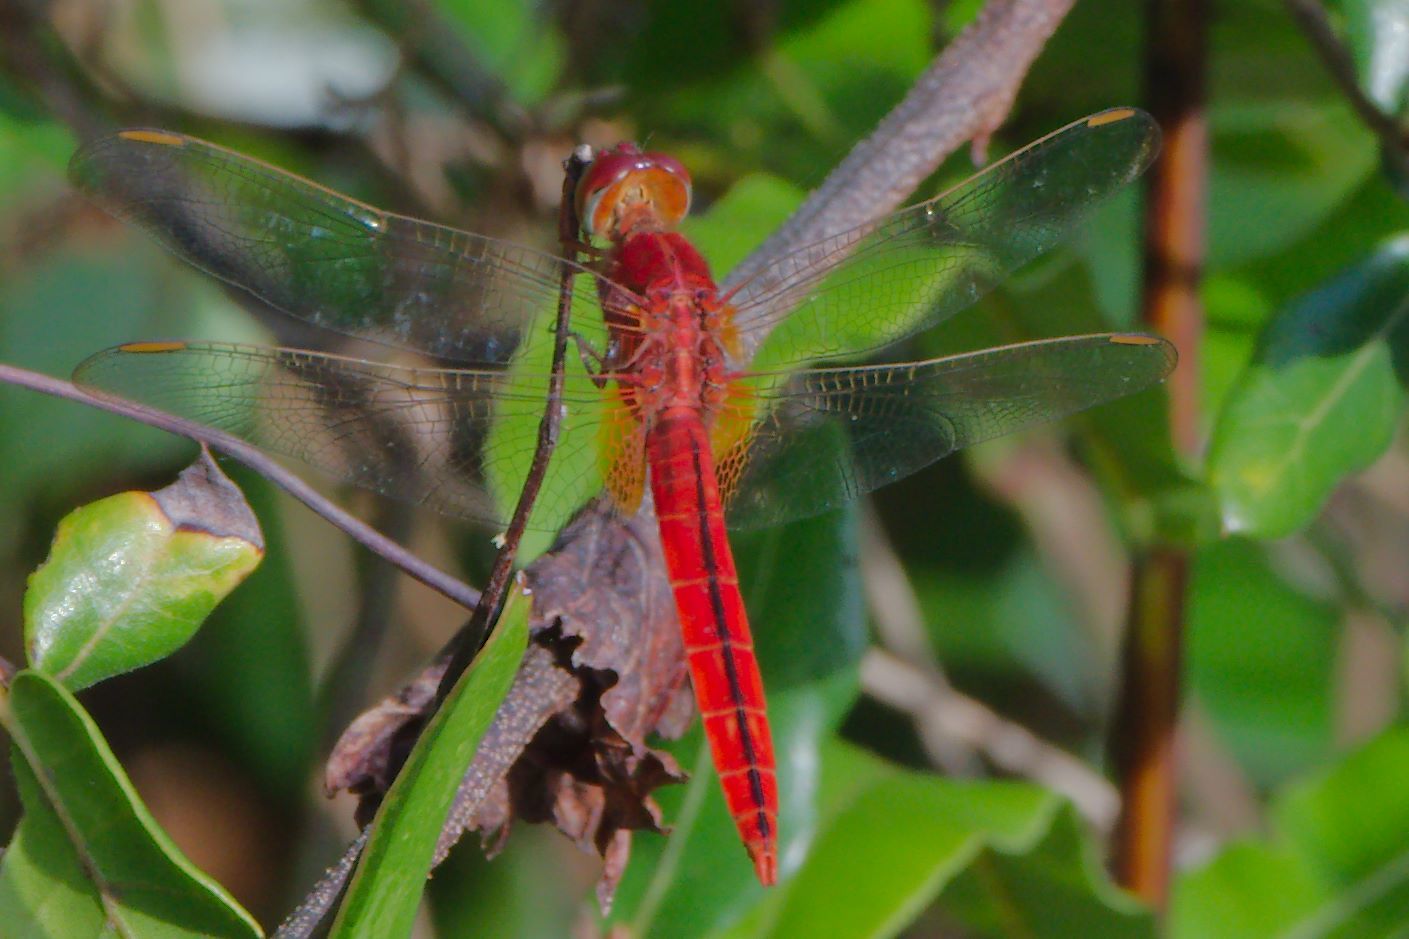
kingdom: Animalia
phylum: Arthropoda
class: Insecta
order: Odonata
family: Libellulidae
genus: Crocothemis
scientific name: Crocothemis servilia
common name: Scarlet skimmer
